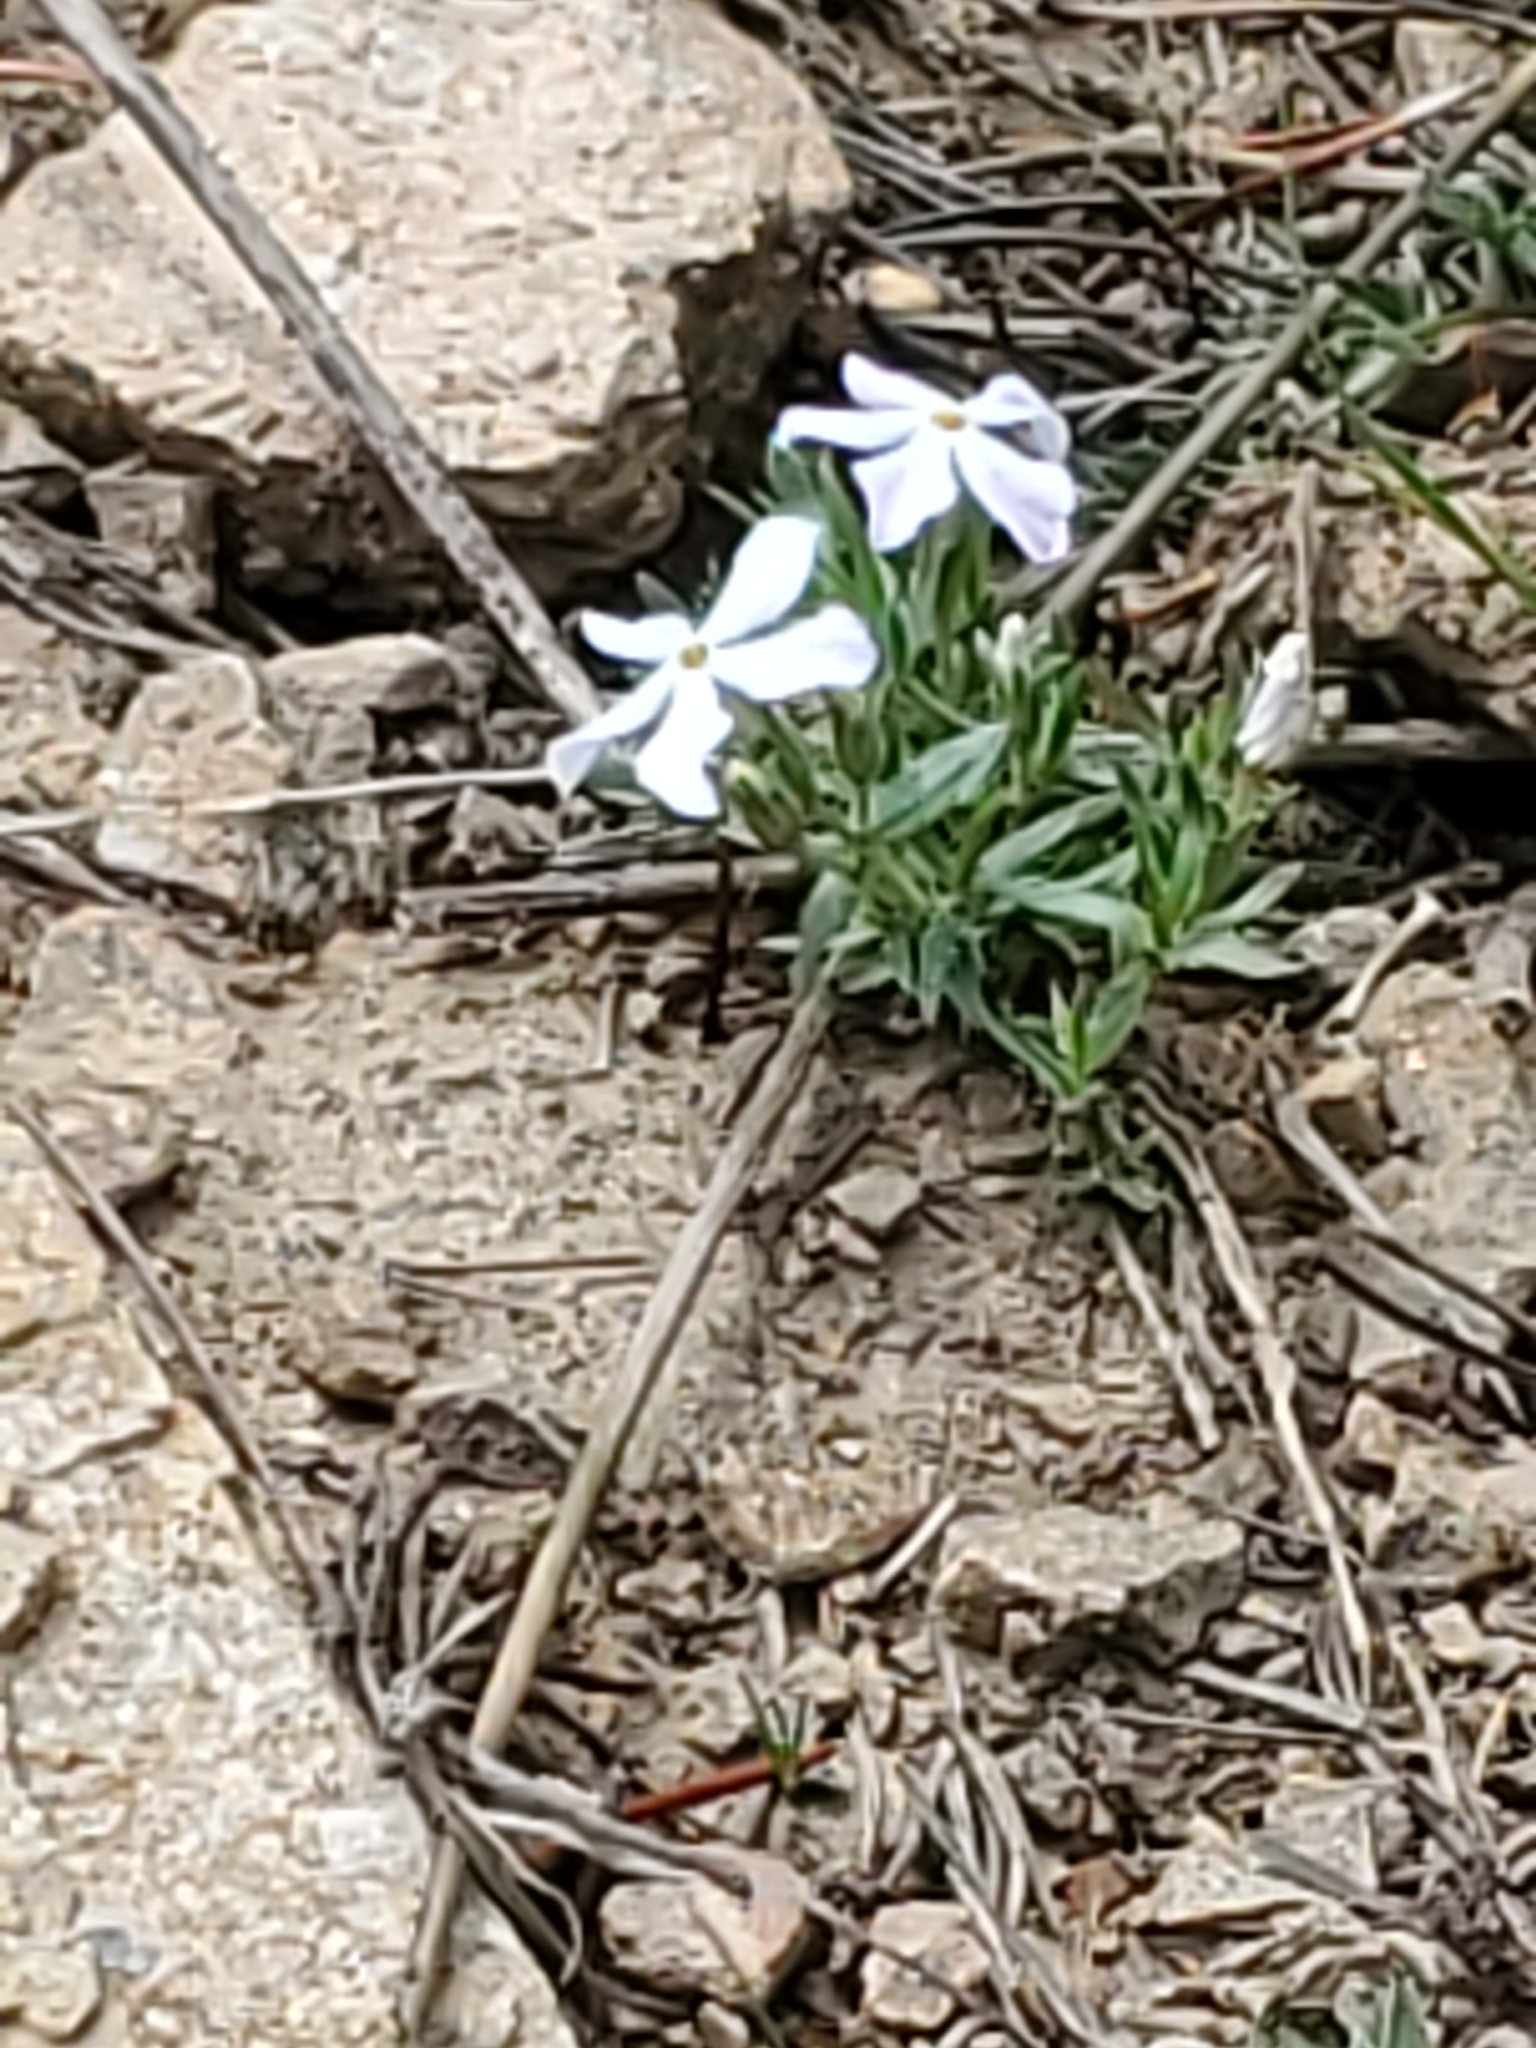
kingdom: Plantae
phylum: Tracheophyta
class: Magnoliopsida
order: Ericales
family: Polemoniaceae
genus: Phlox
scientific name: Phlox alyssifolia
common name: Blue phlox
